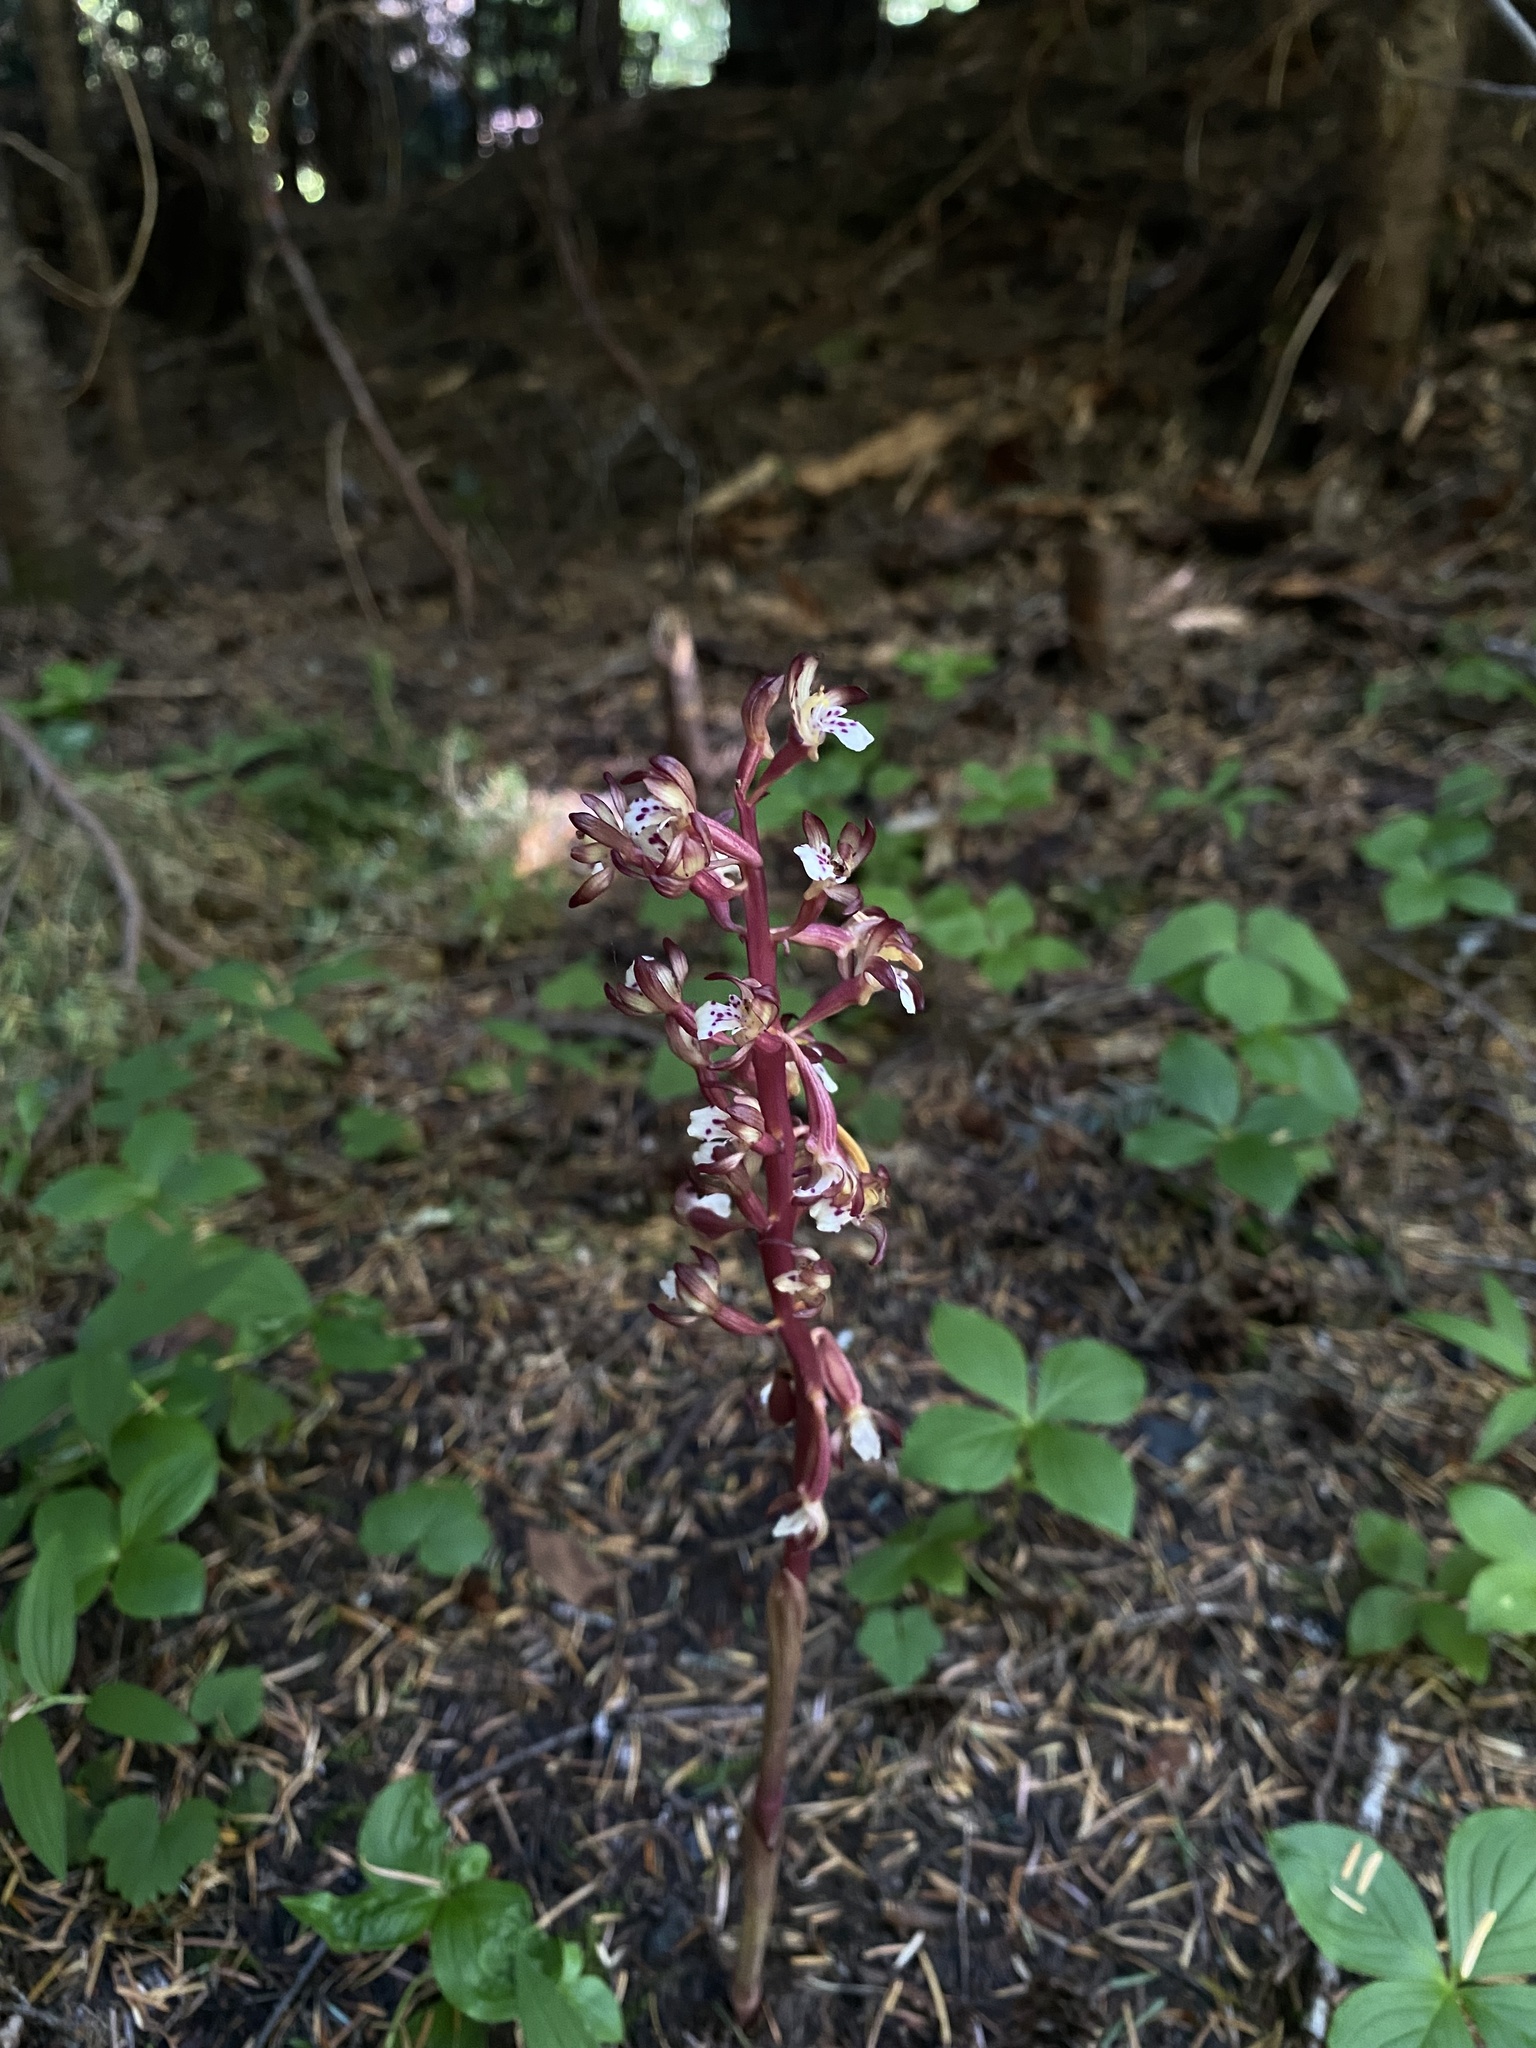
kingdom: Plantae
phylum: Tracheophyta
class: Liliopsida
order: Asparagales
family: Orchidaceae
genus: Corallorhiza
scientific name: Corallorhiza maculata
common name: Spotted coralroot
